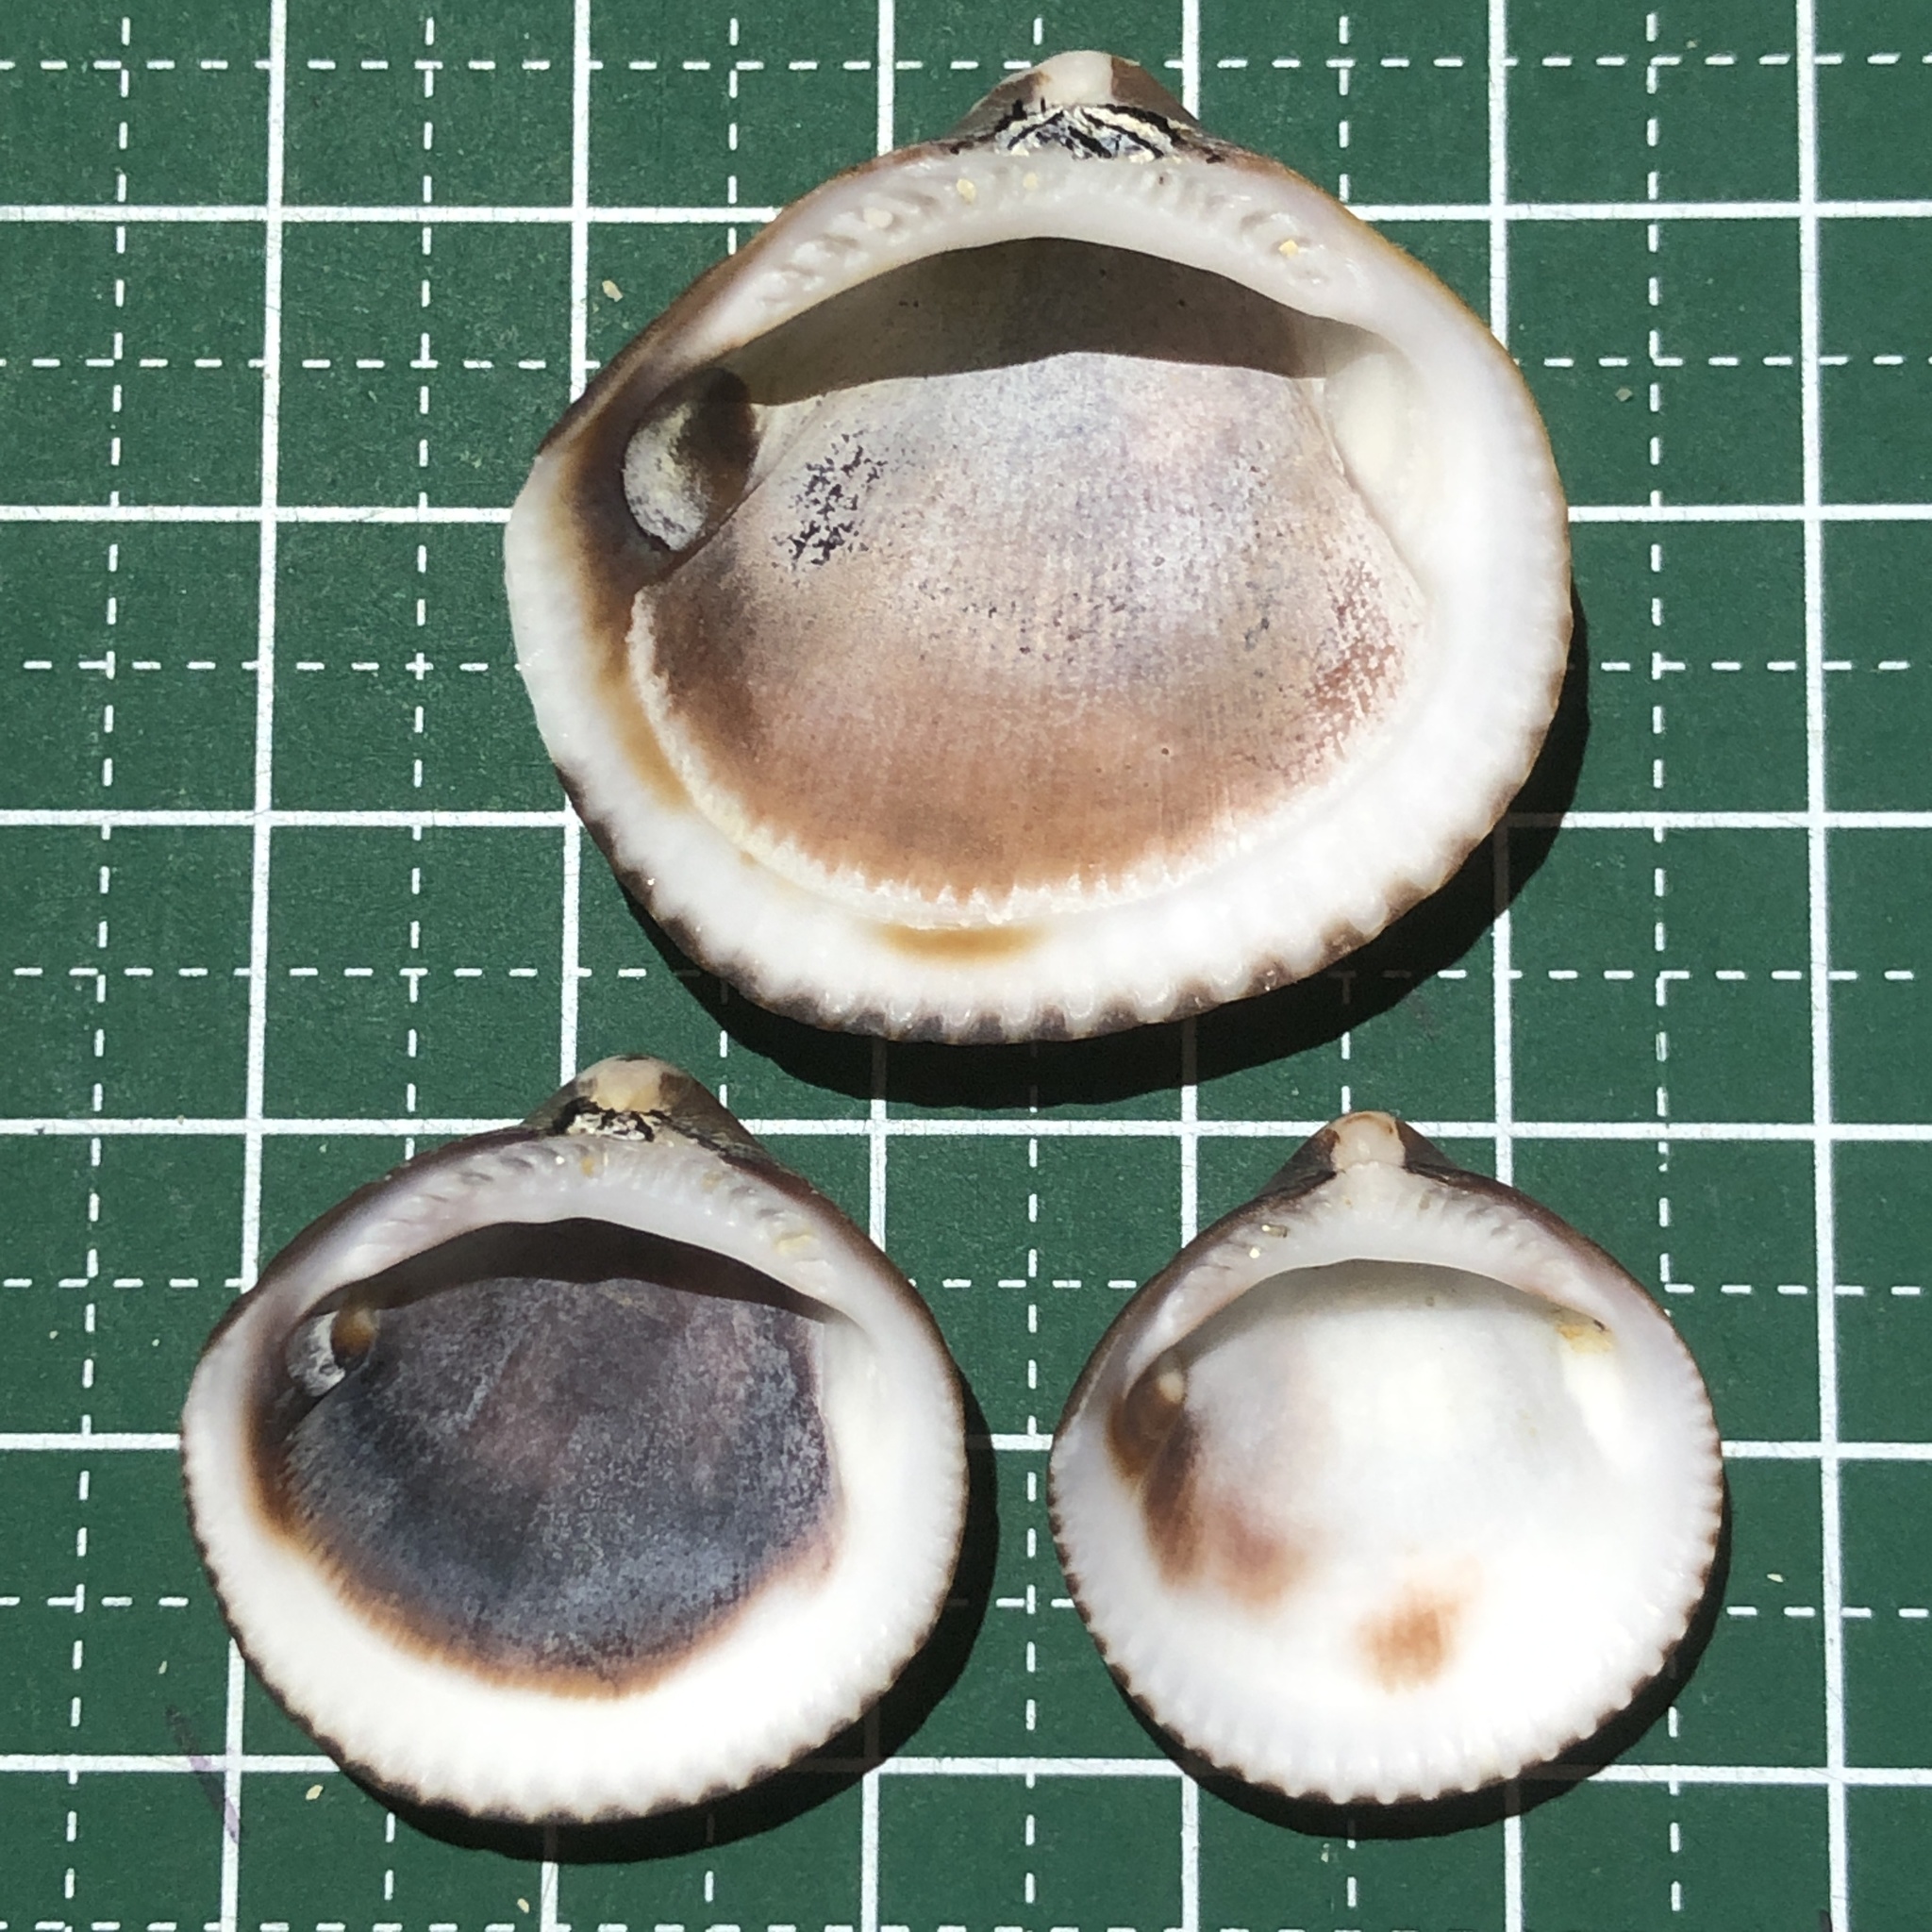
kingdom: Animalia
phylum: Mollusca
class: Bivalvia
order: Arcida
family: Glycymerididae
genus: Glycymeris
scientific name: Glycymeris reevei
